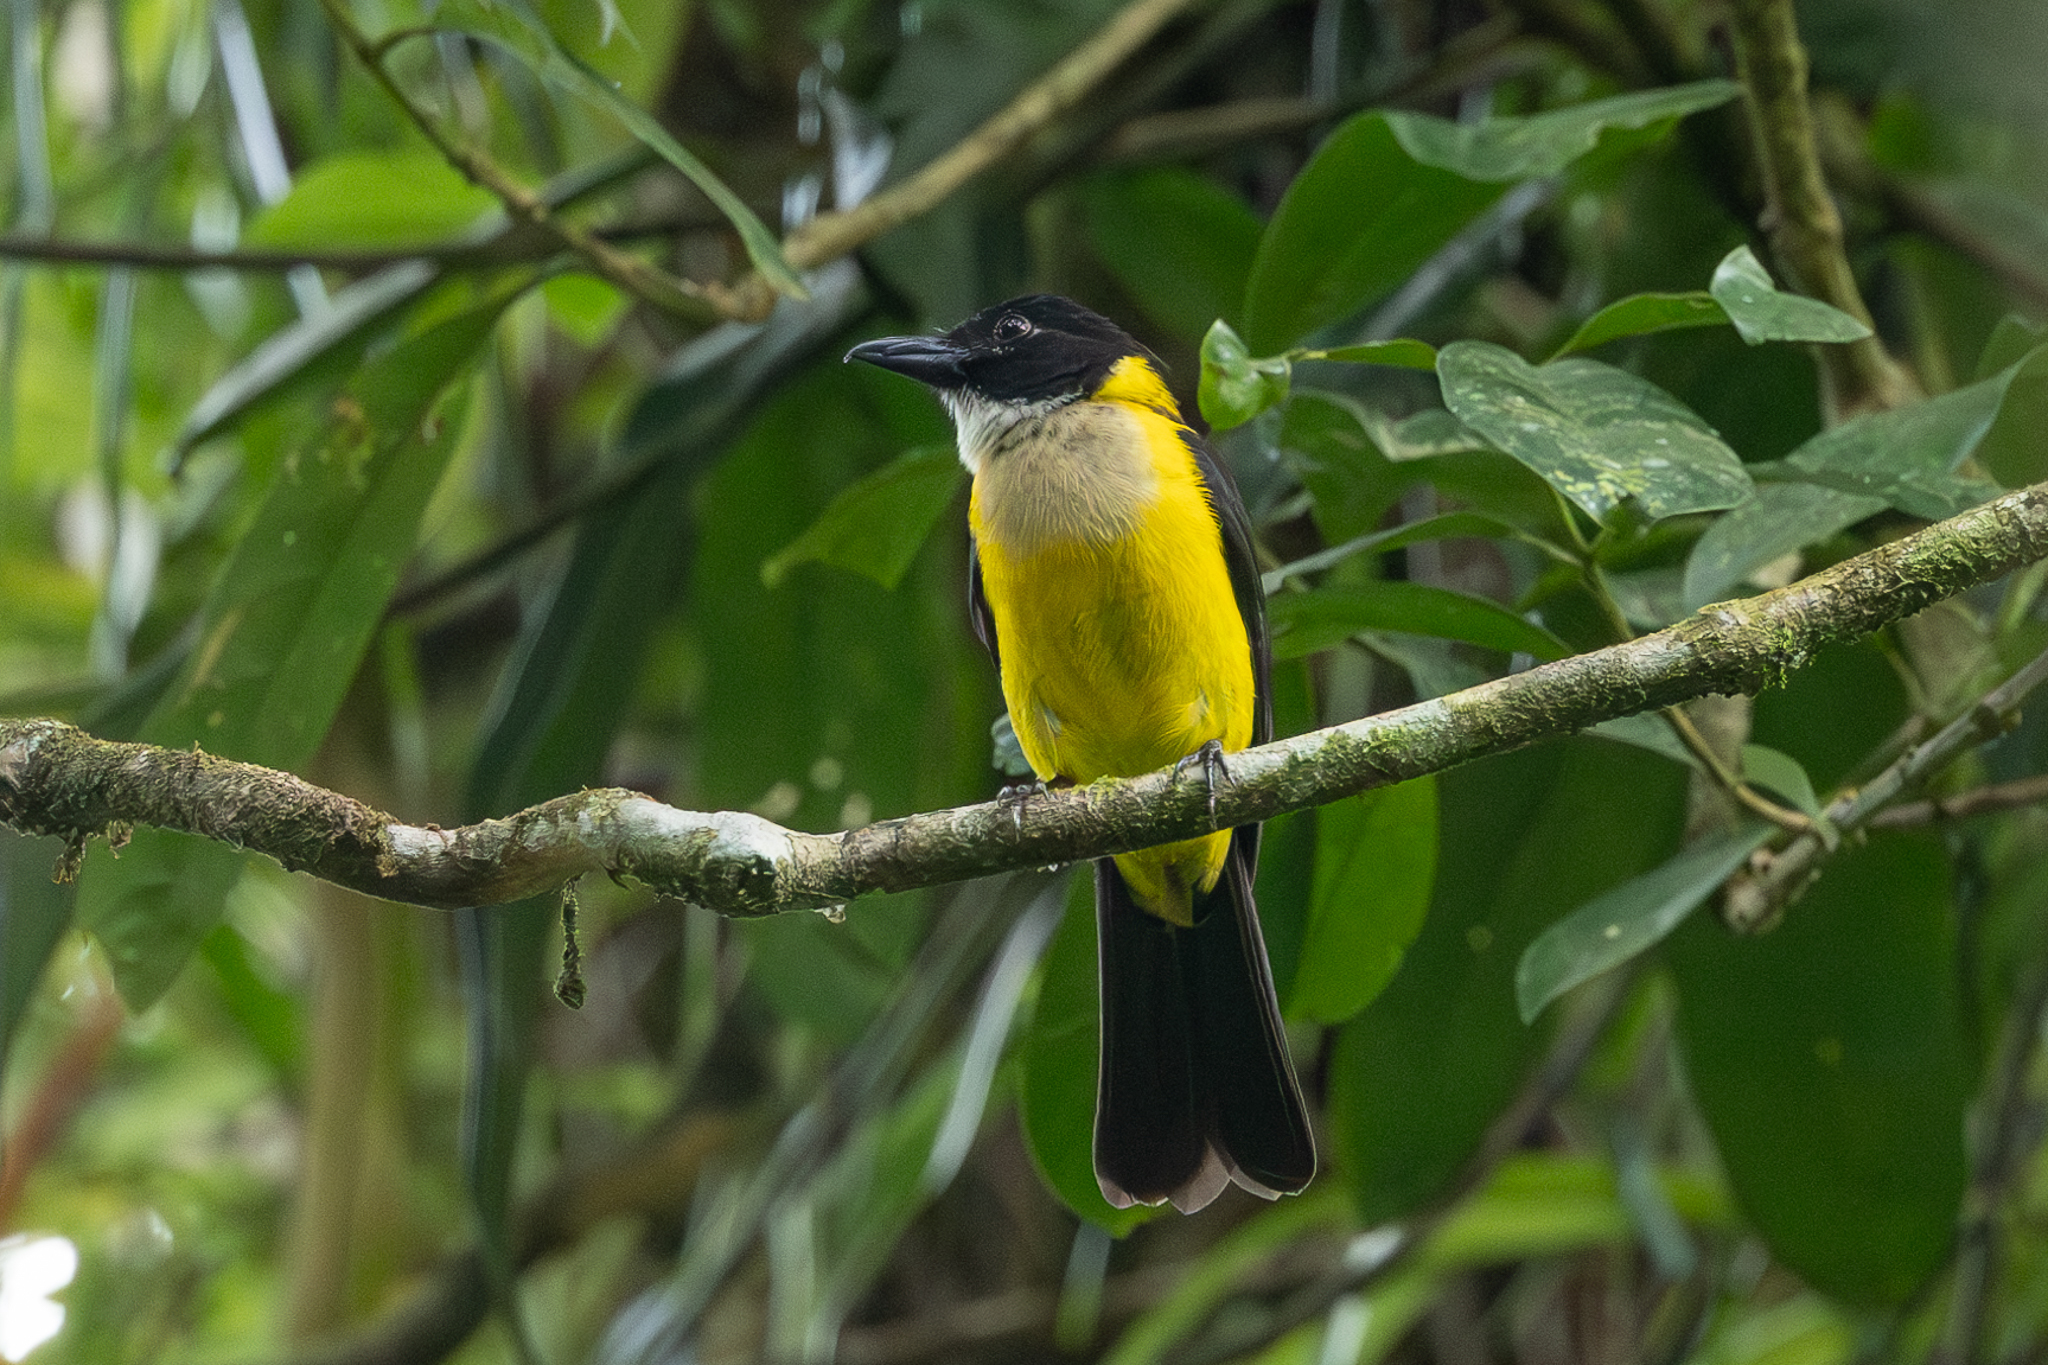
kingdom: Animalia
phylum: Chordata
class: Aves
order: Passeriformes
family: Thraupidae
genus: Lanio
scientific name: Lanio leucothorax
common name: White-throated shrike-tanager
